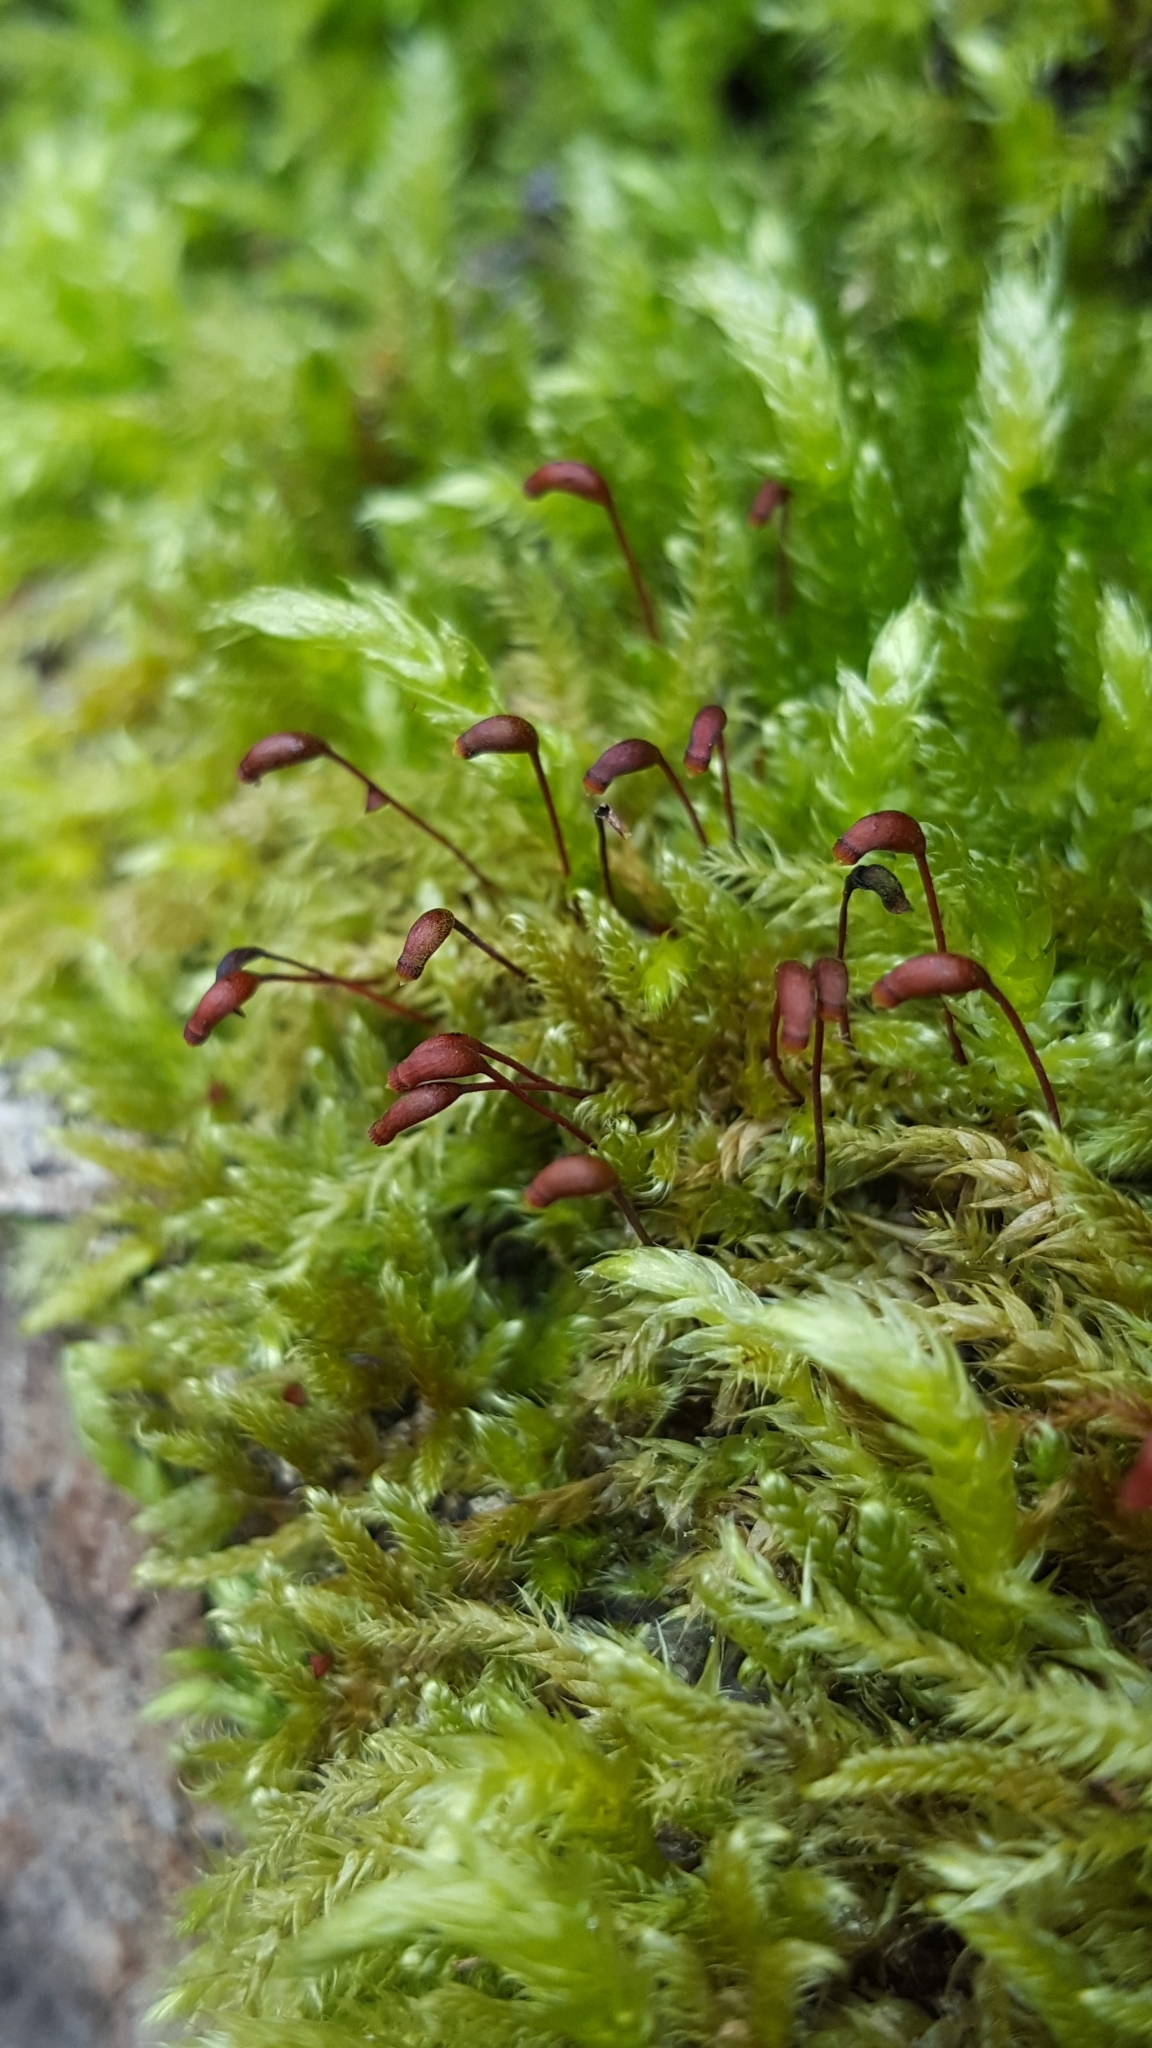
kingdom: Plantae
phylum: Bryophyta
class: Bryopsida
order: Hypnales
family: Hypnaceae
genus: Hypnum
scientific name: Hypnum cupressiforme
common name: Cypress-leaved plait-moss
